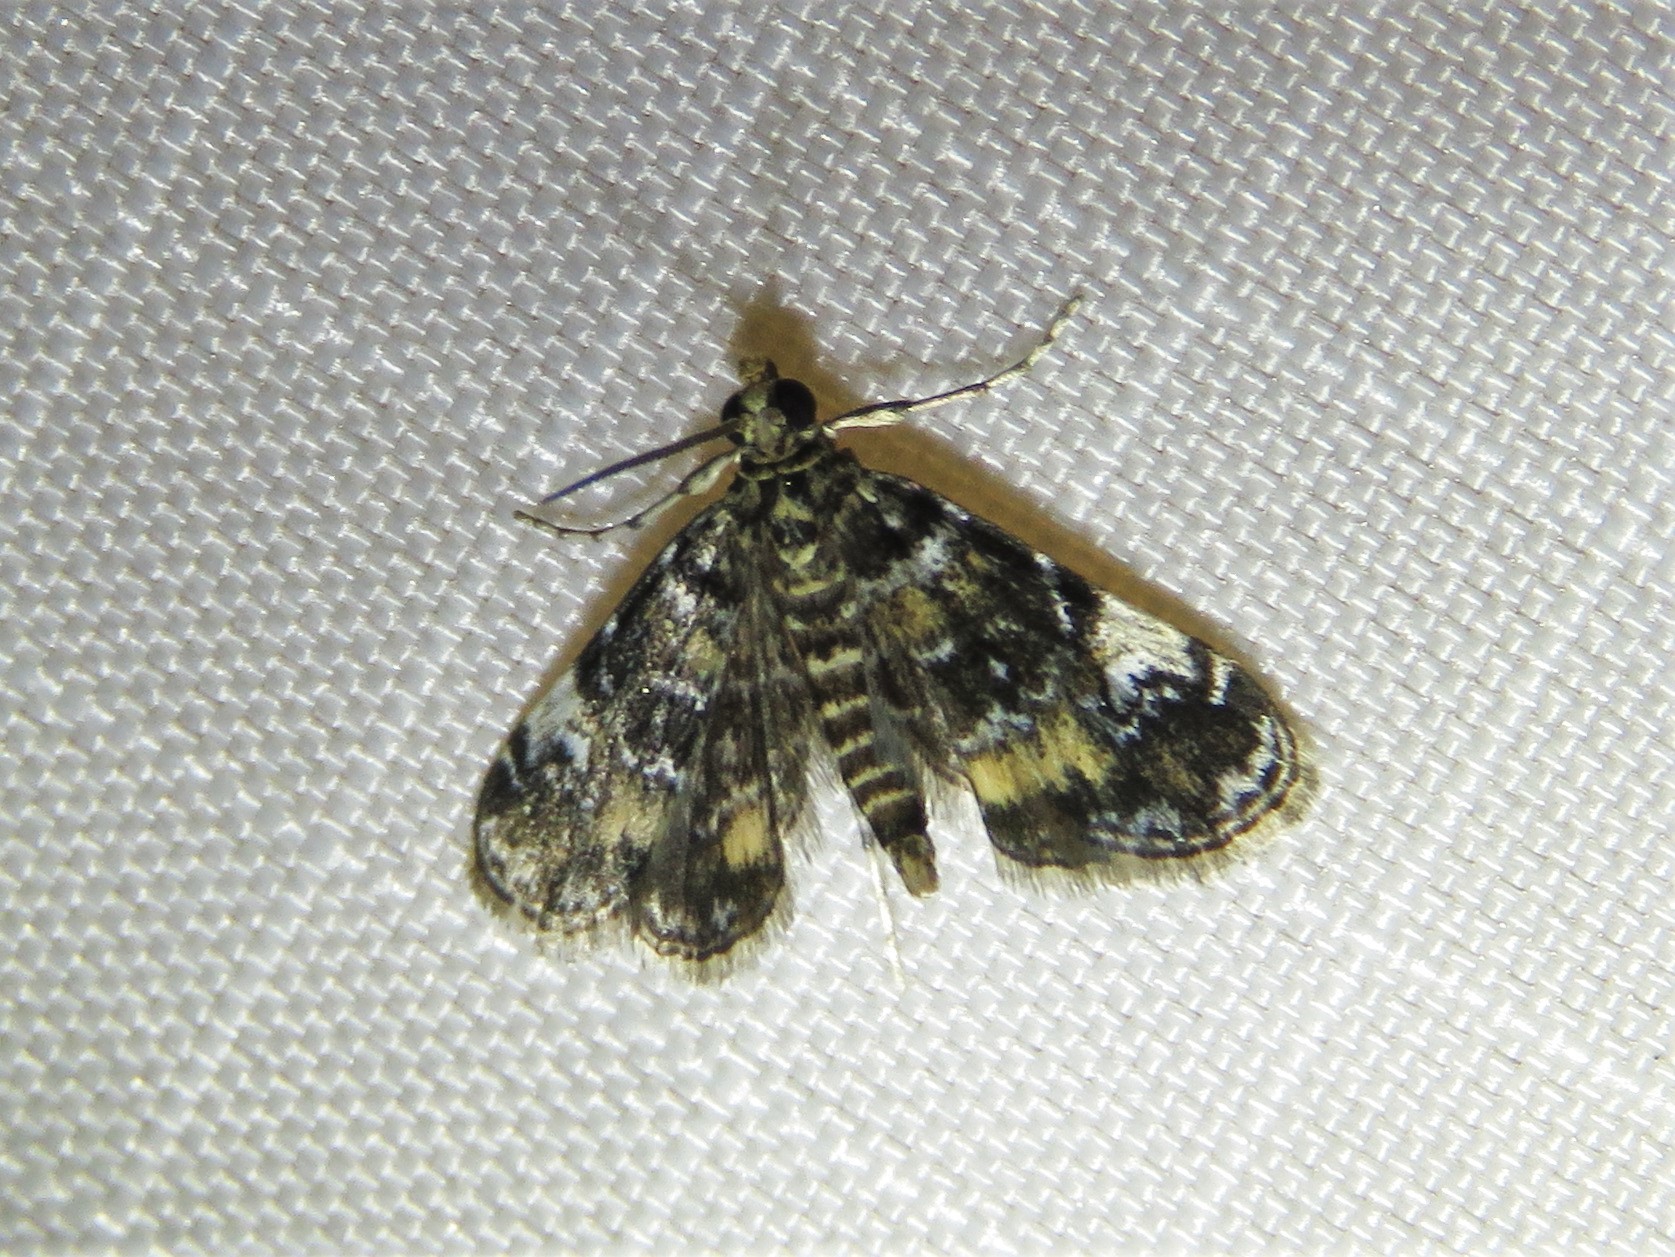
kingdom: Animalia
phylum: Arthropoda
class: Insecta
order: Lepidoptera
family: Crambidae
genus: Elophila
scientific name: Elophila obliteralis
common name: Waterlily leafcutter moth
